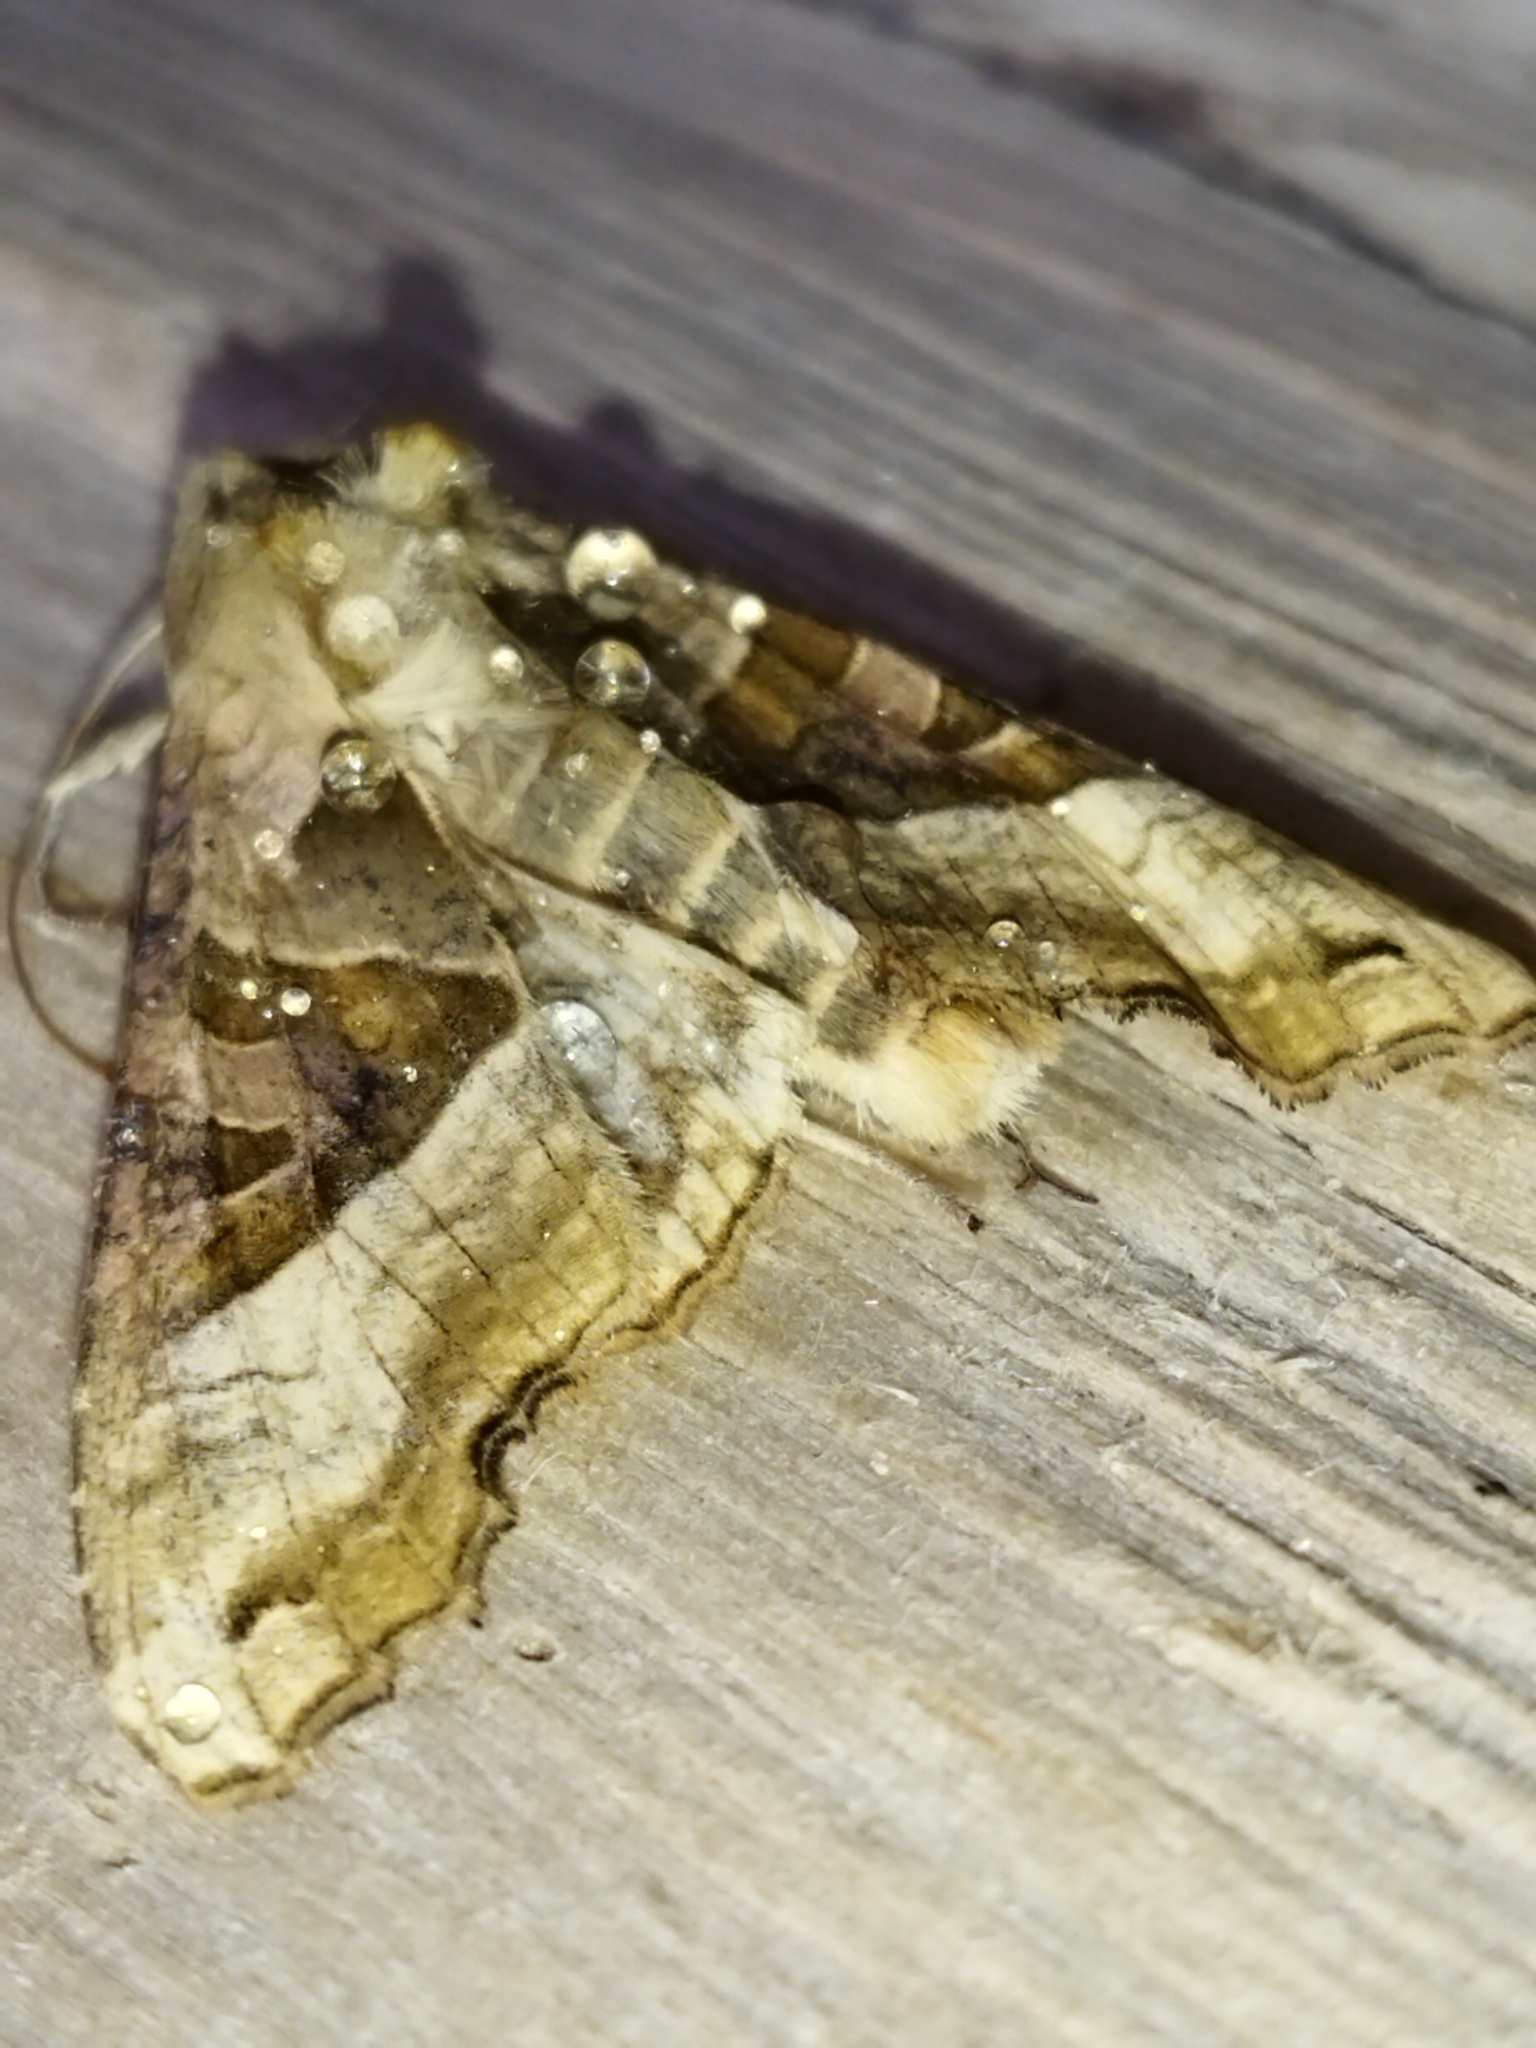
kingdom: Animalia
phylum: Arthropoda
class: Insecta
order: Lepidoptera
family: Noctuidae
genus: Phlogophora
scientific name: Phlogophora meticulosa
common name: Angle shades
